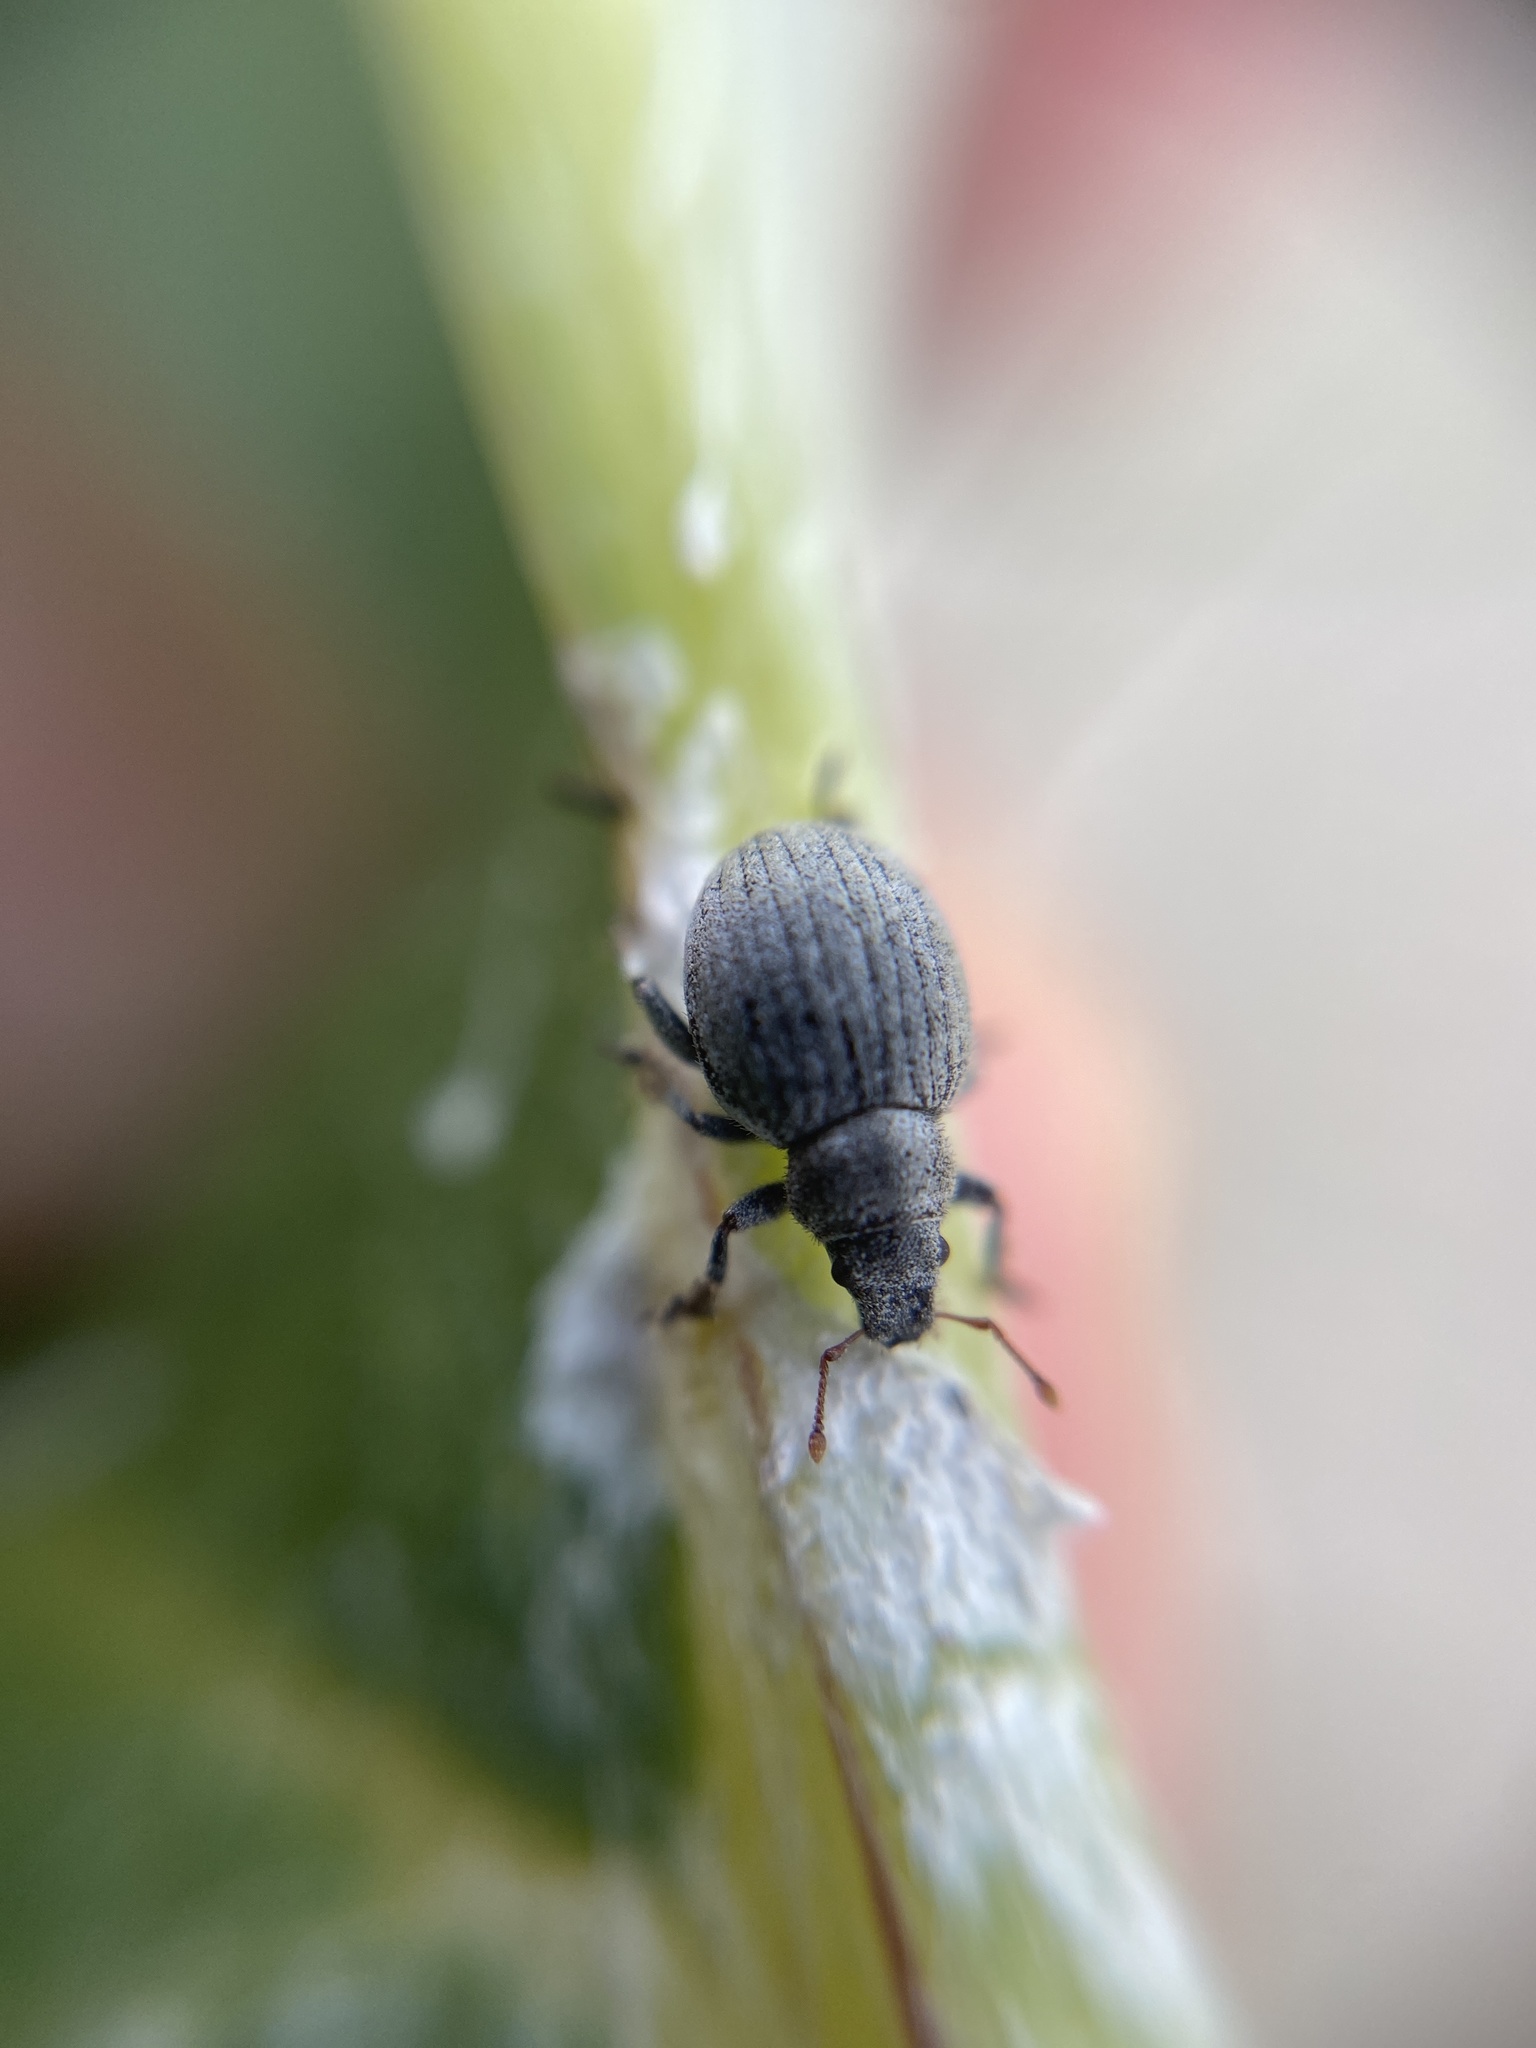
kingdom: Animalia
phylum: Arthropoda
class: Insecta
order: Coleoptera
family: Curculionidae
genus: Philopedon
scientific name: Philopedon plagiatum
